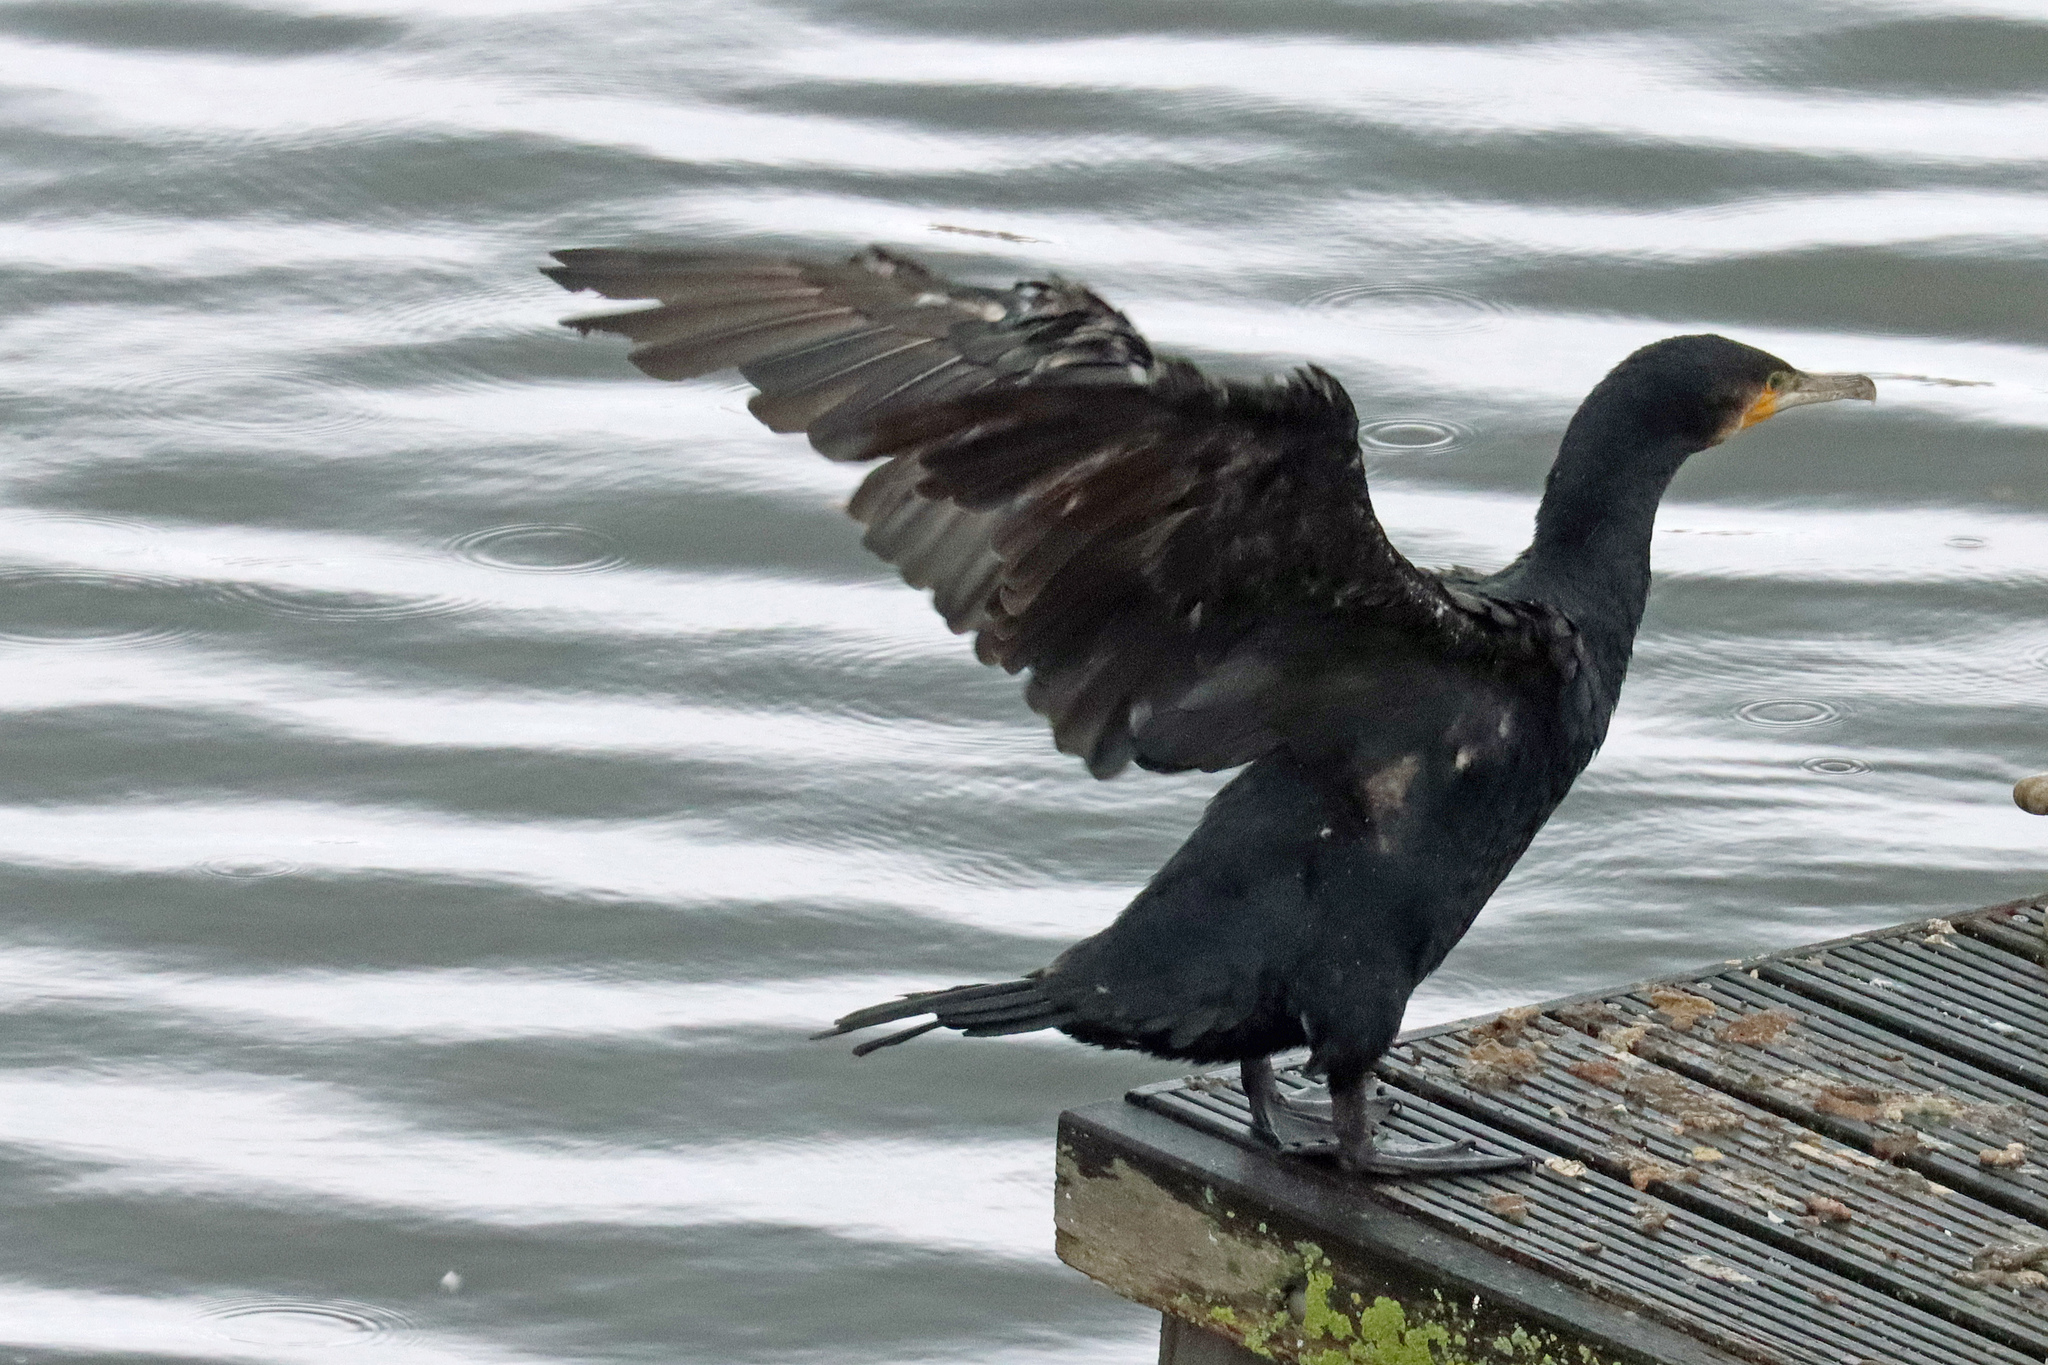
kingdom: Animalia
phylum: Chordata
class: Aves
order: Suliformes
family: Phalacrocoracidae
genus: Phalacrocorax
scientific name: Phalacrocorax carbo
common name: Great cormorant
